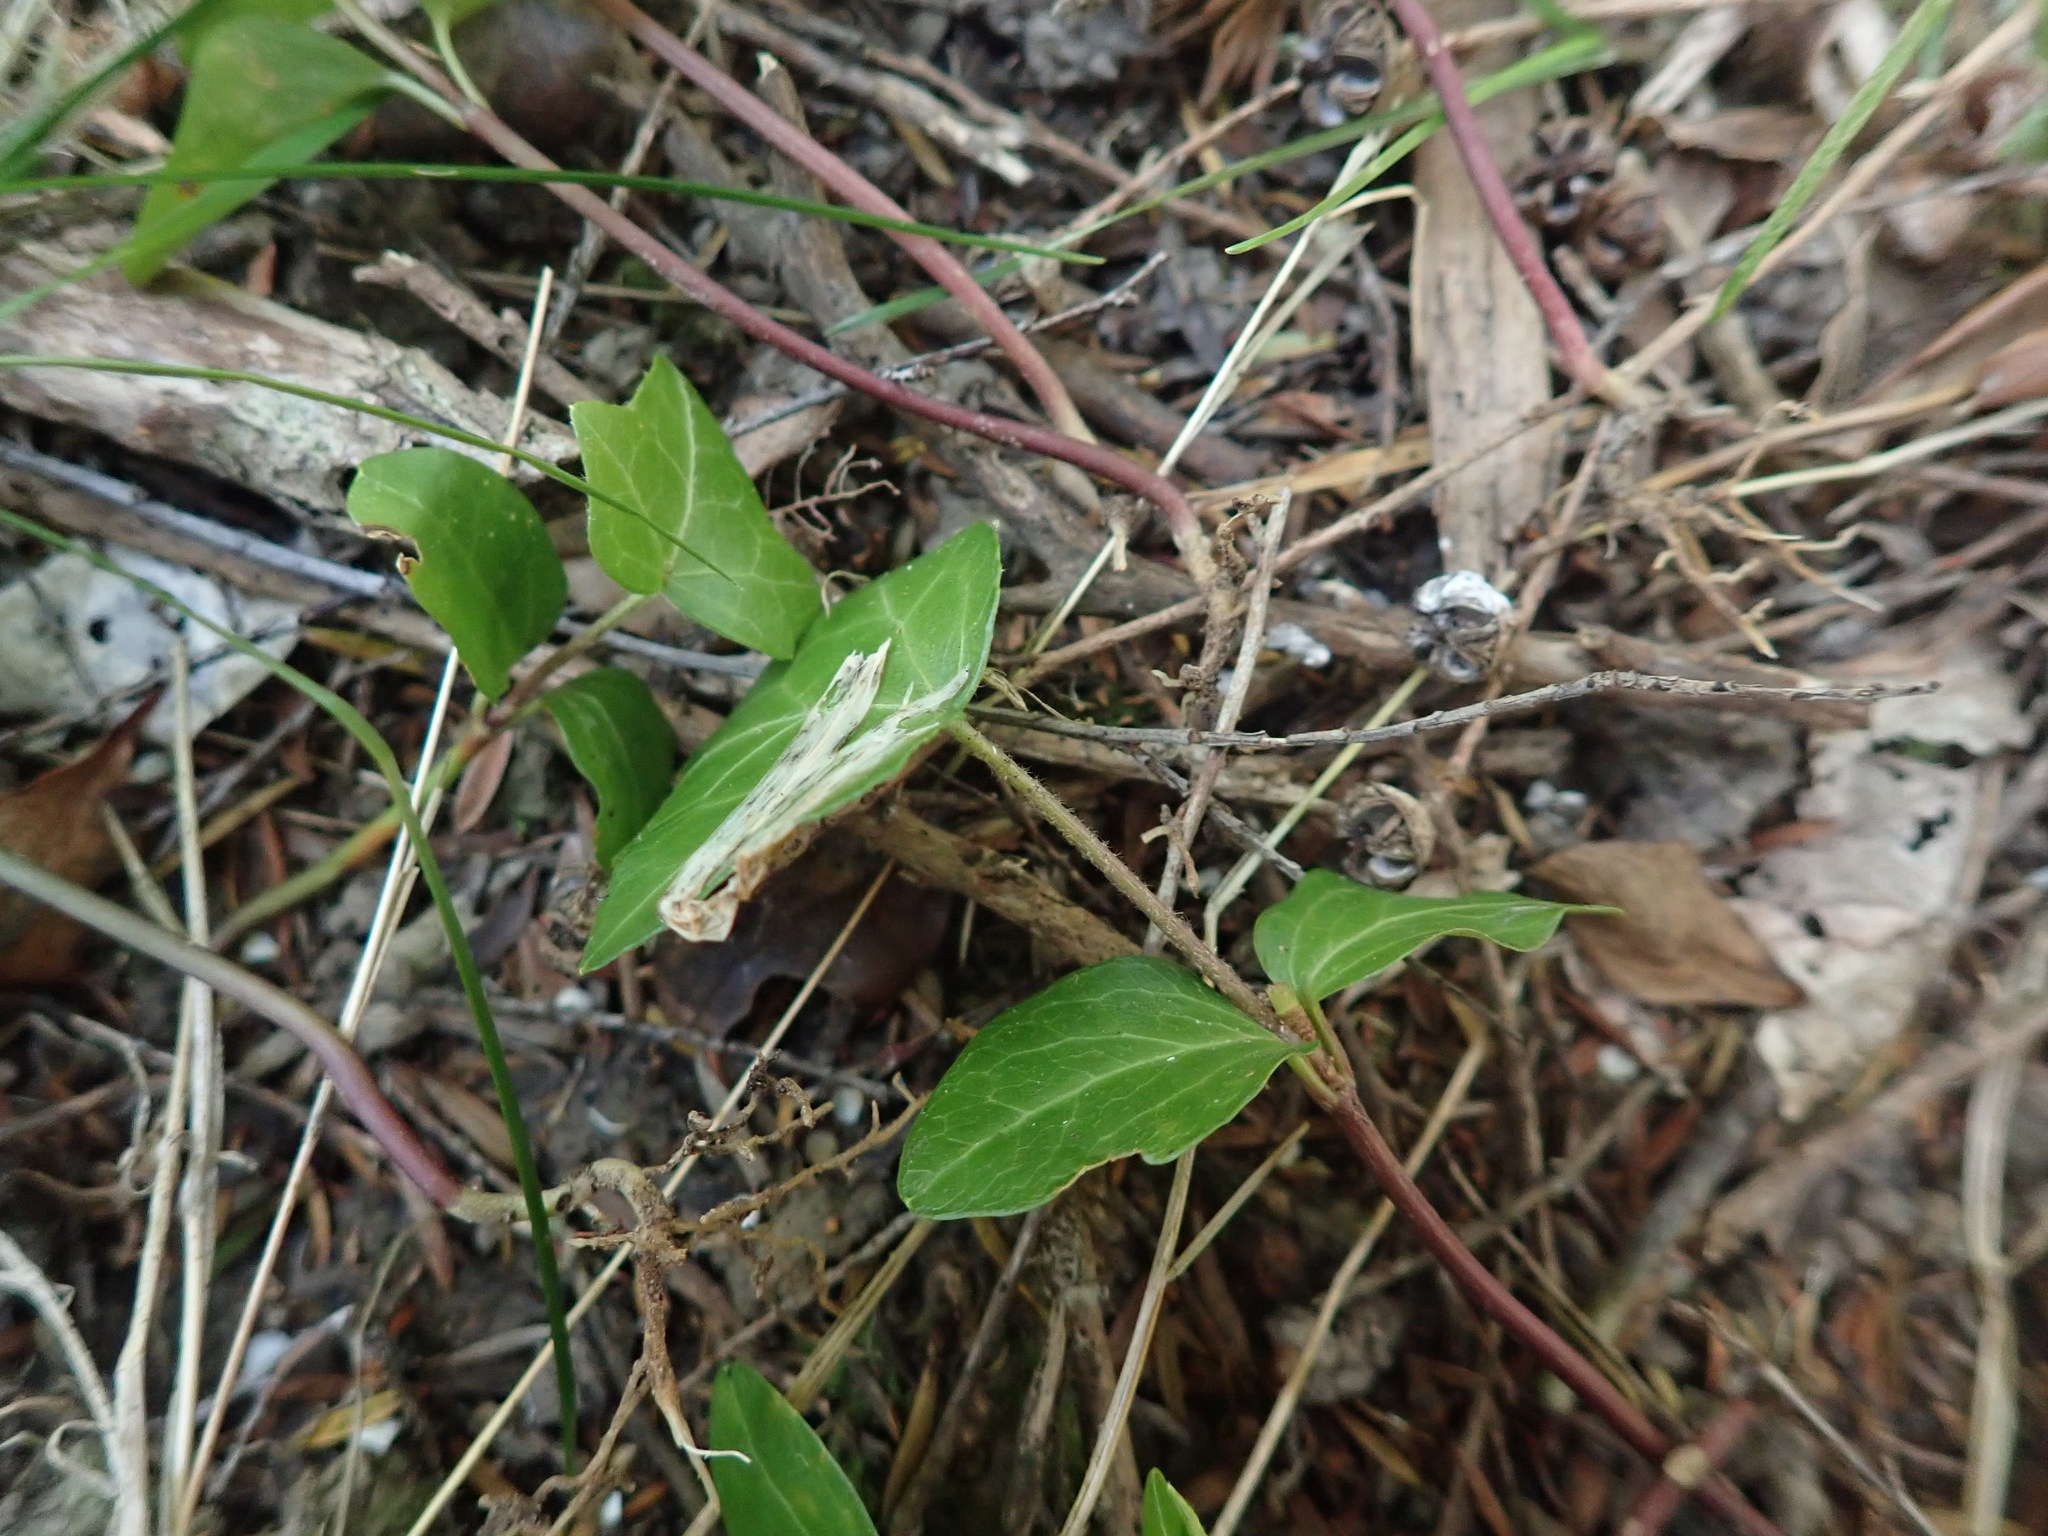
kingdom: Plantae
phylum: Tracheophyta
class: Magnoliopsida
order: Apiales
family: Araliaceae
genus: Hedera
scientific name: Hedera helix
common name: Ivy
